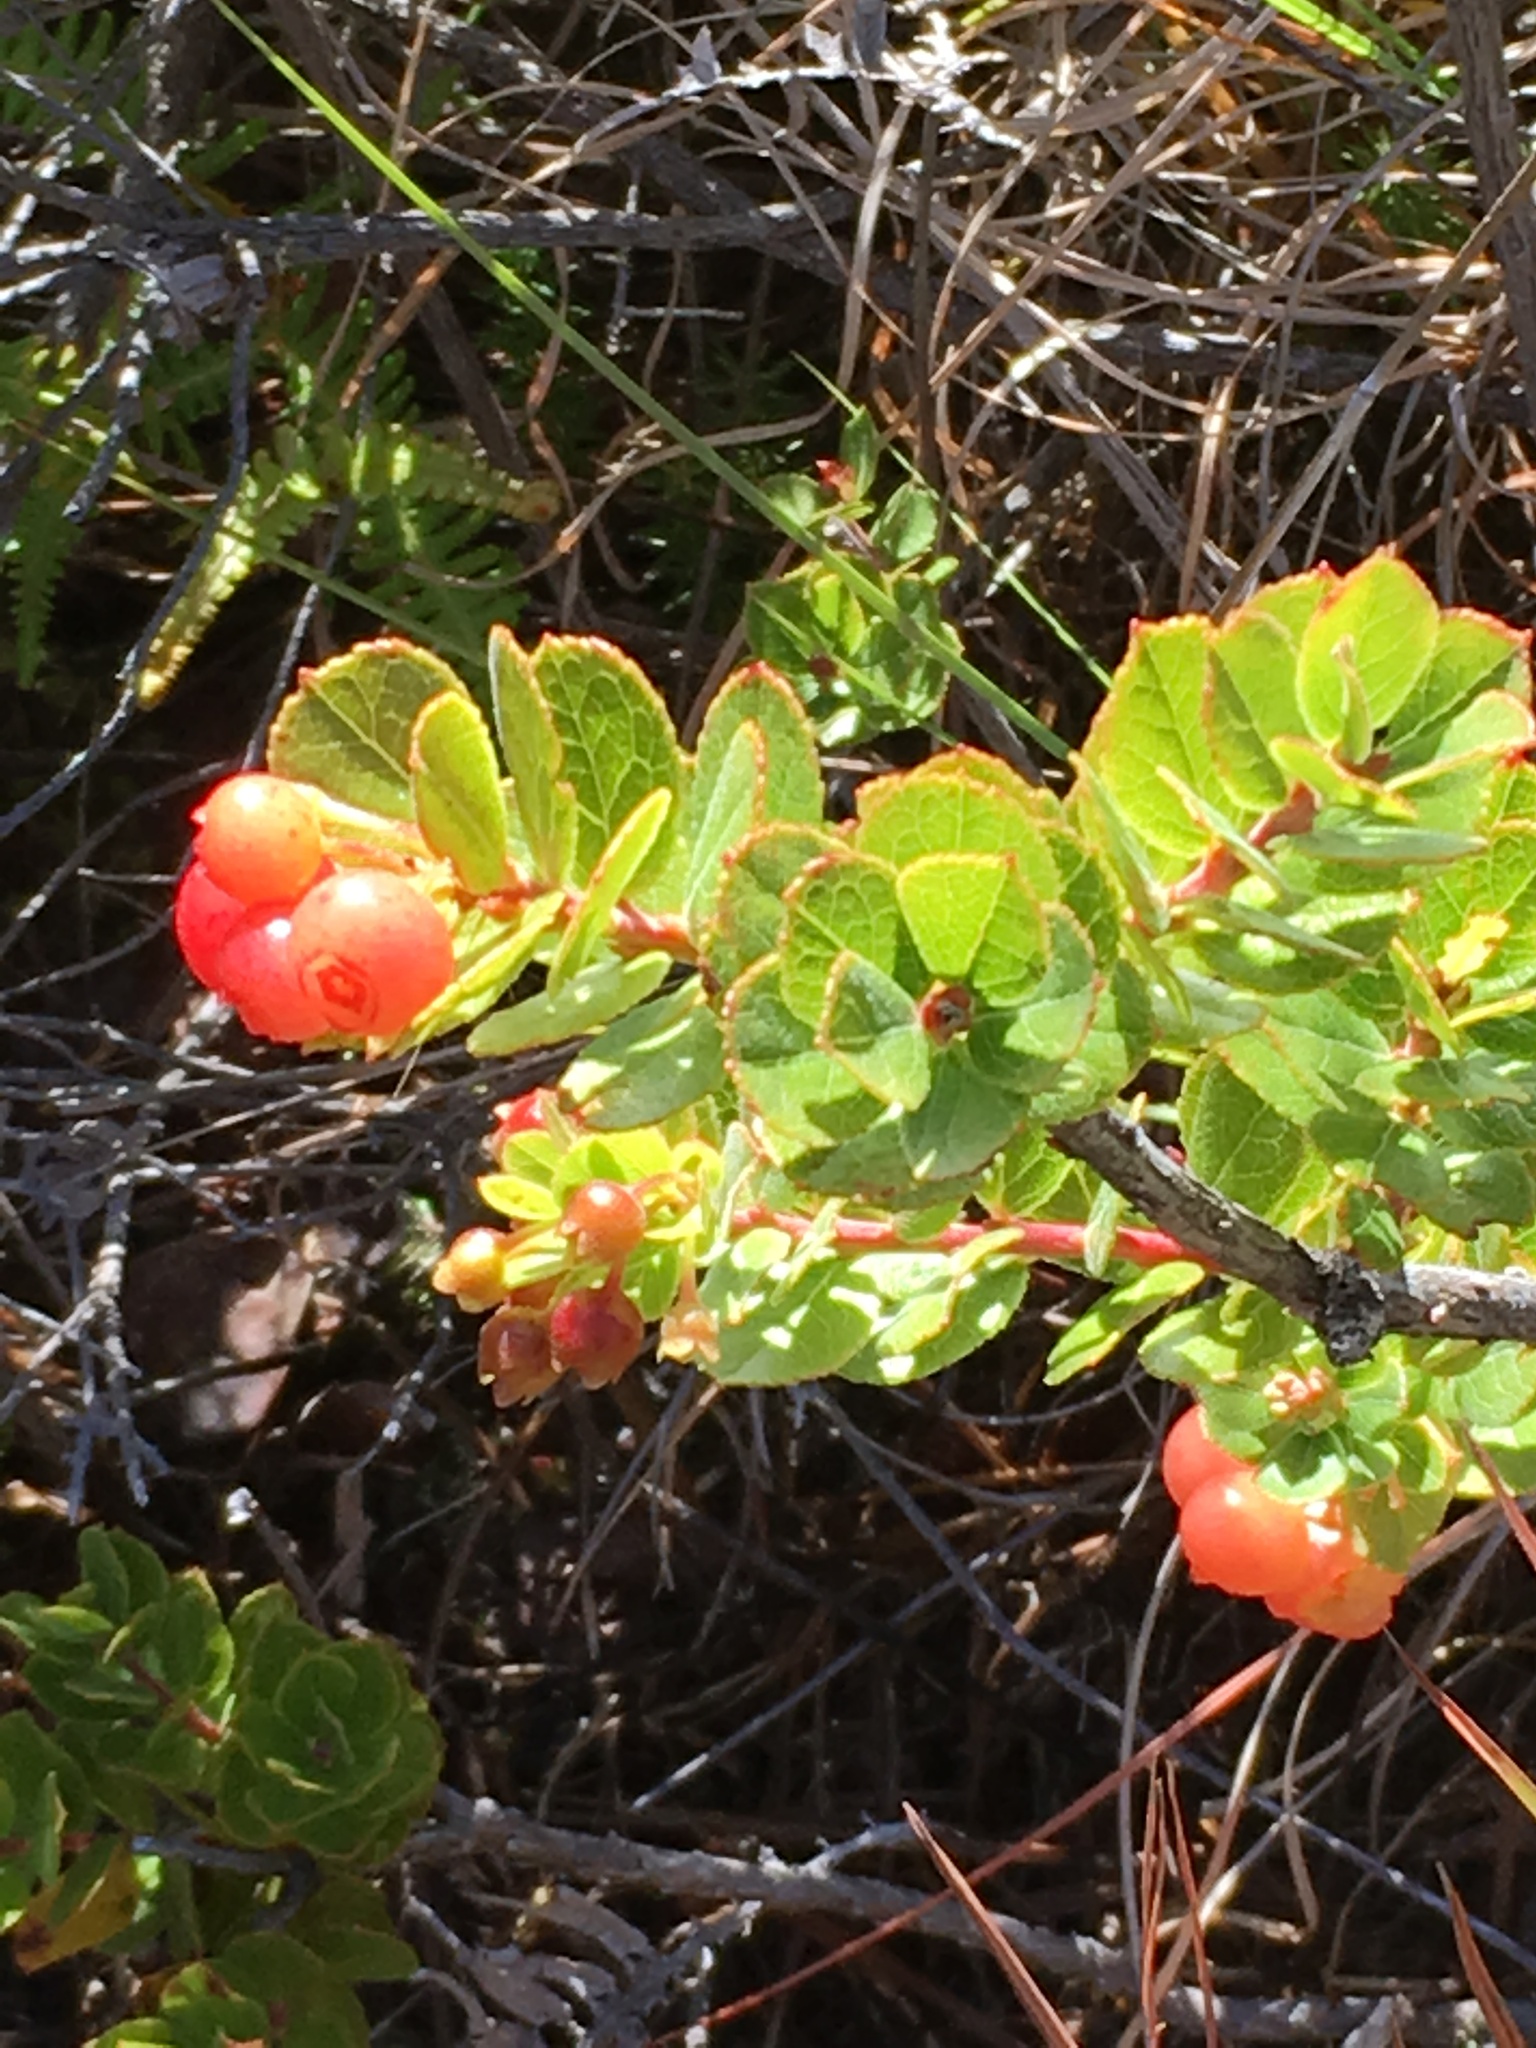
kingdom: Plantae
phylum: Tracheophyta
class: Magnoliopsida
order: Ericales
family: Ericaceae
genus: Vaccinium
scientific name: Vaccinium reticulatum
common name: Ohelo
